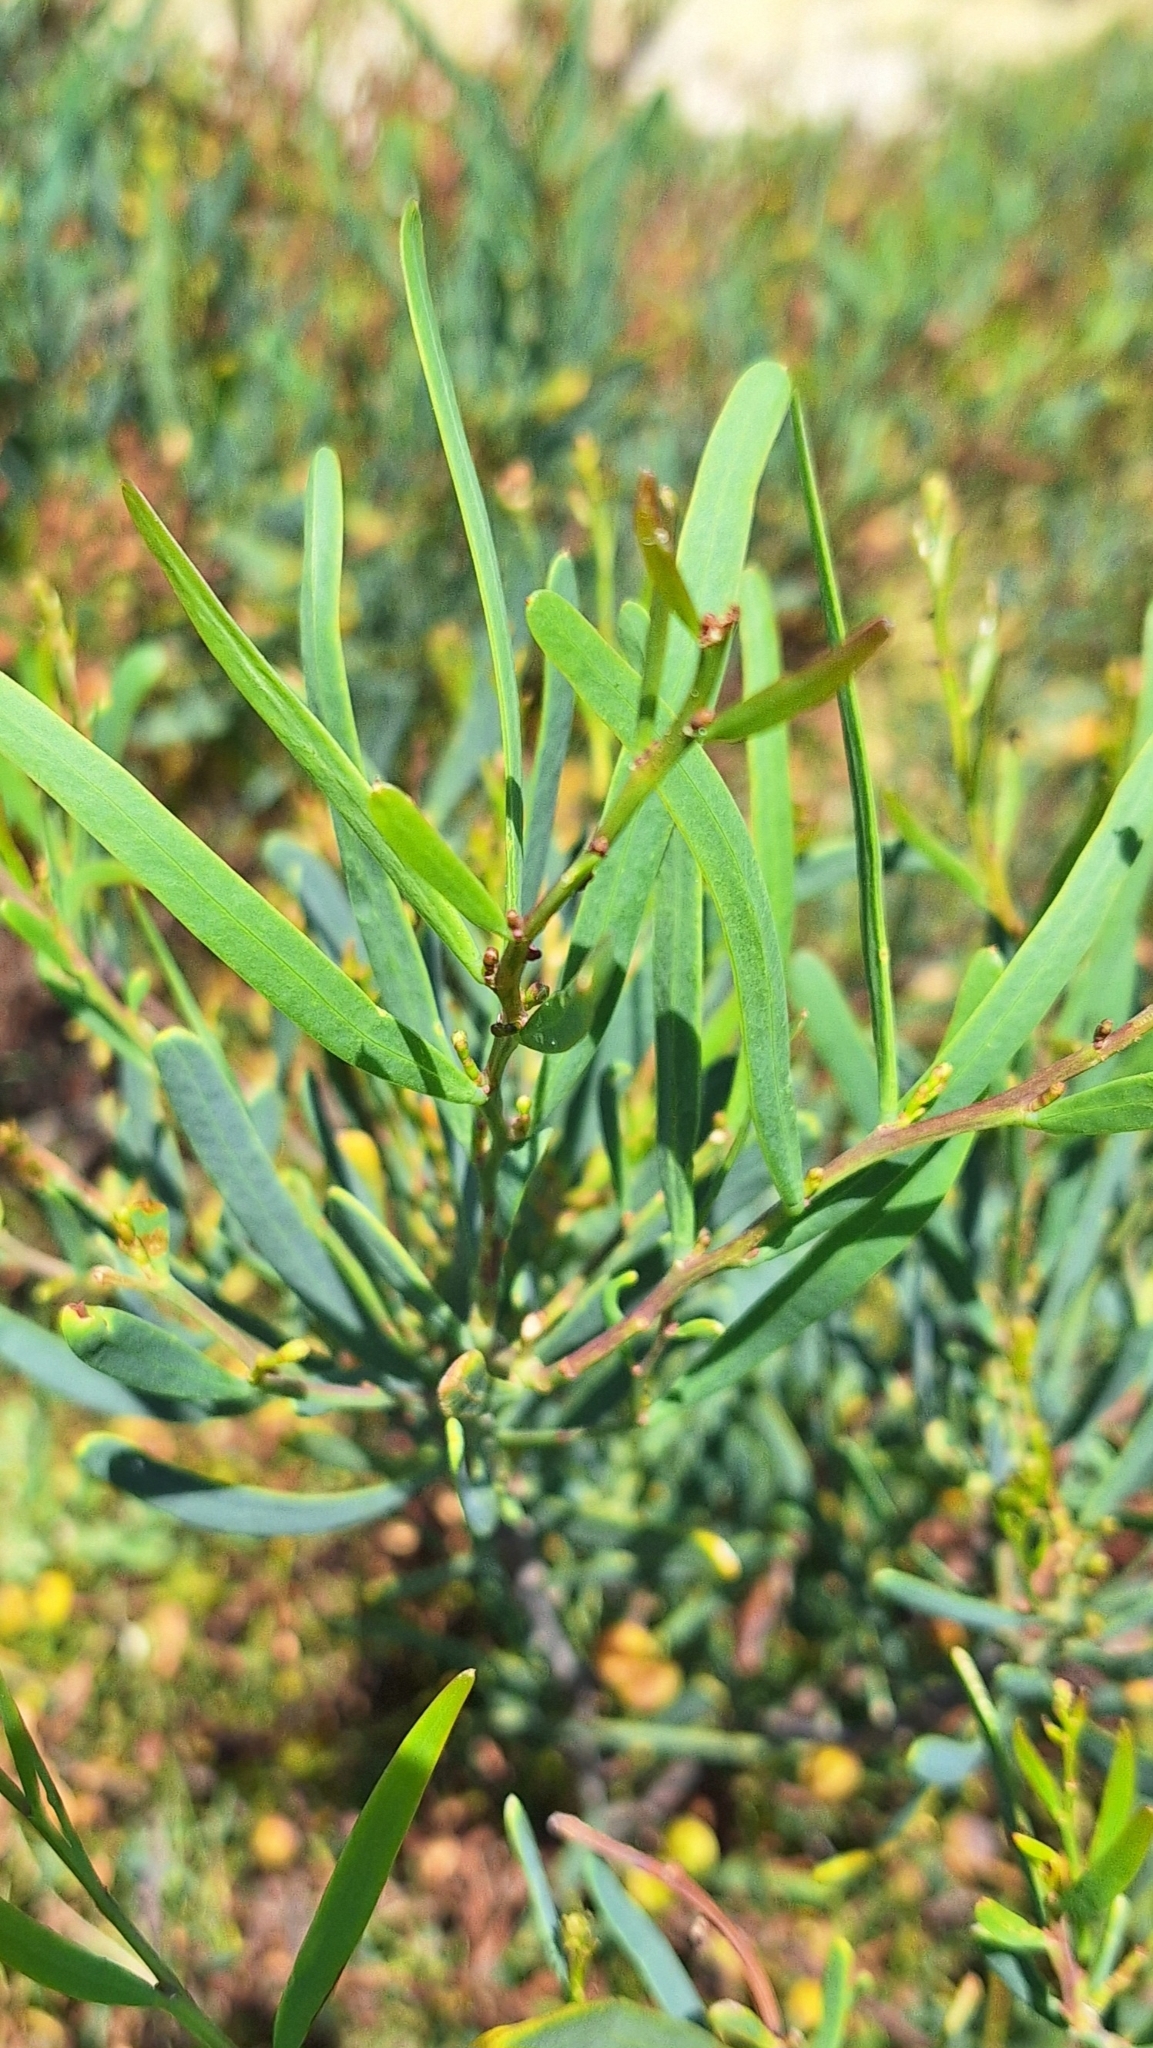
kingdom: Plantae
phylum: Tracheophyta
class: Magnoliopsida
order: Fabales
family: Fabaceae
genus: Acacia
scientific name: Acacia cupularis
